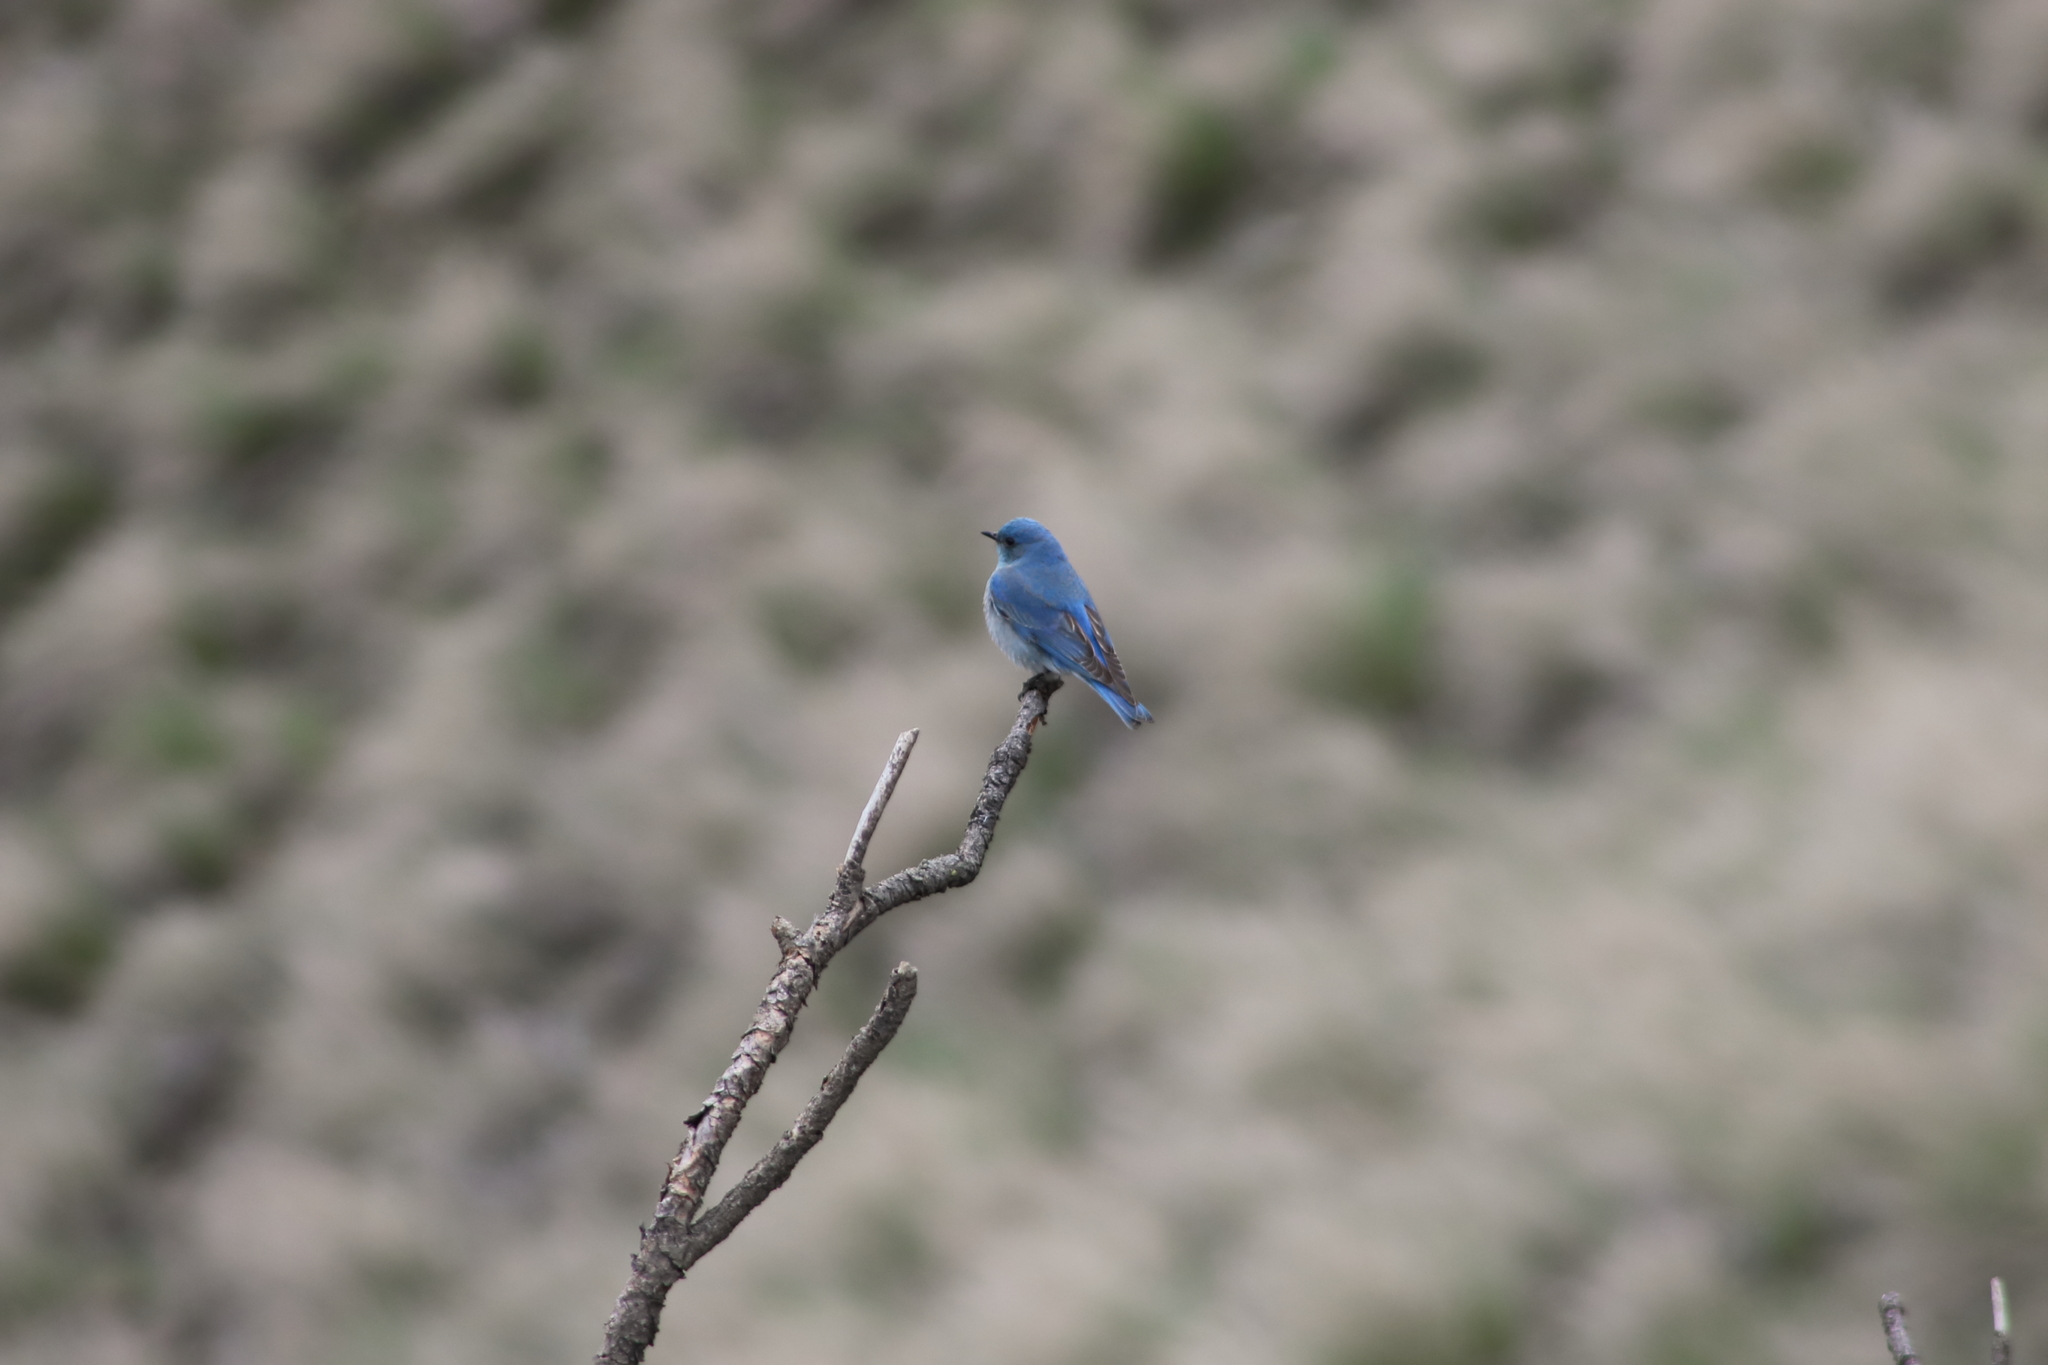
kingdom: Animalia
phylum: Chordata
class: Aves
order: Passeriformes
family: Turdidae
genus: Sialia
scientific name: Sialia currucoides
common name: Mountain bluebird
